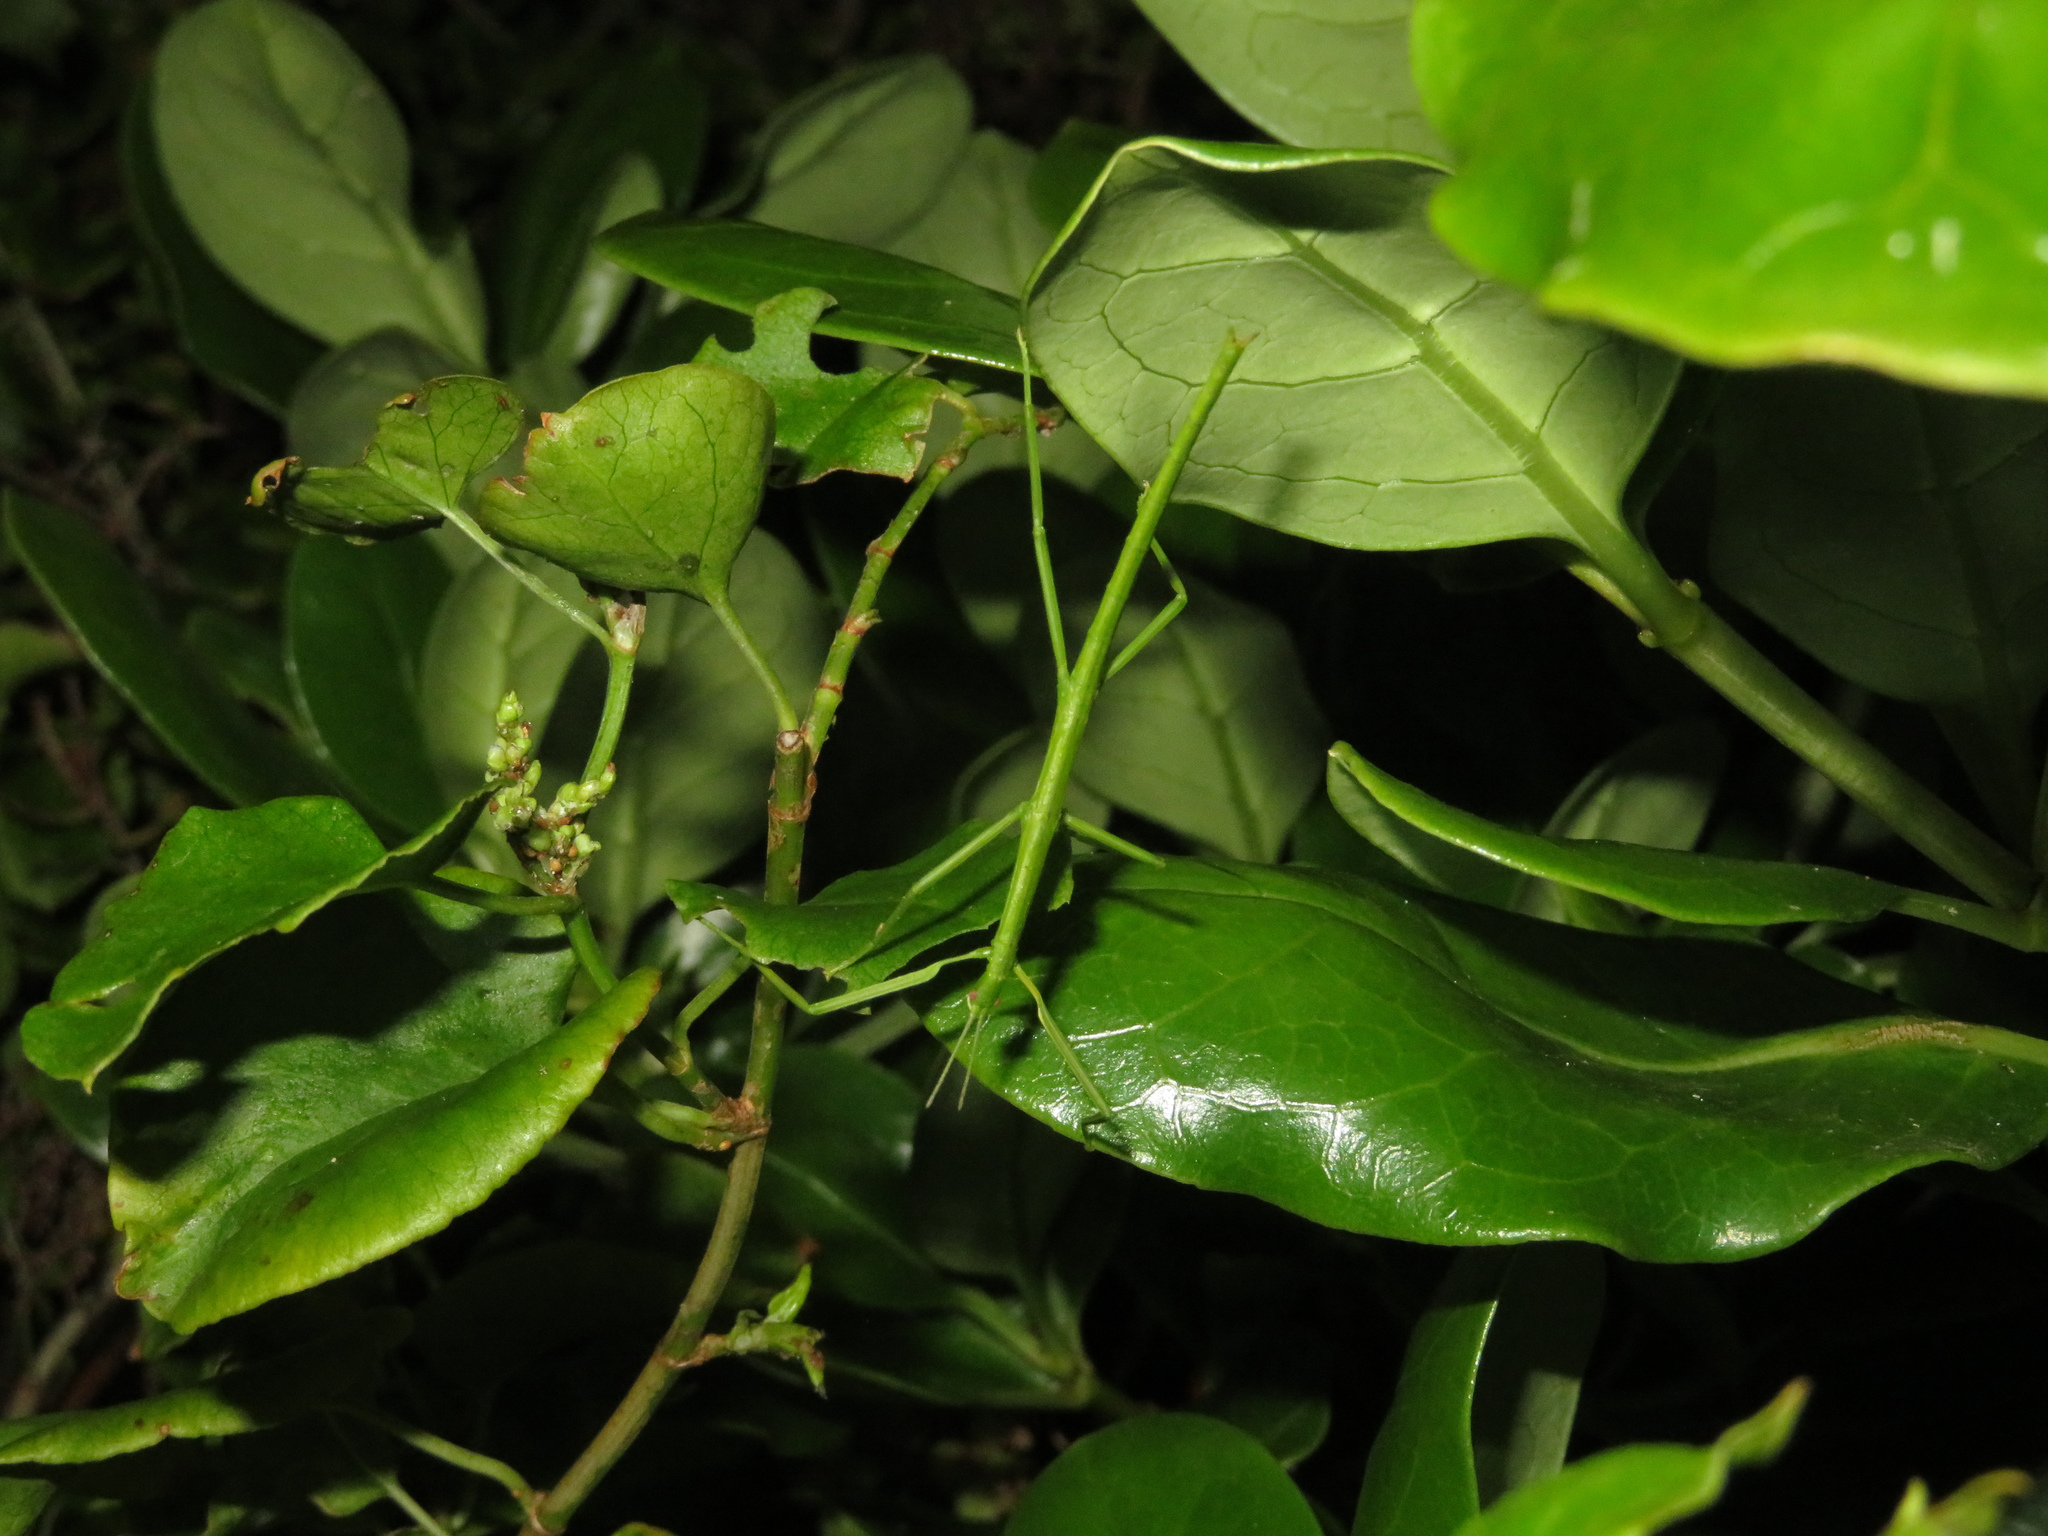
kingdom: Animalia
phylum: Arthropoda
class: Insecta
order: Phasmida
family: Phasmatidae
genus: Clitarchus
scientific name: Clitarchus hookeri
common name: Smooth stick insect
